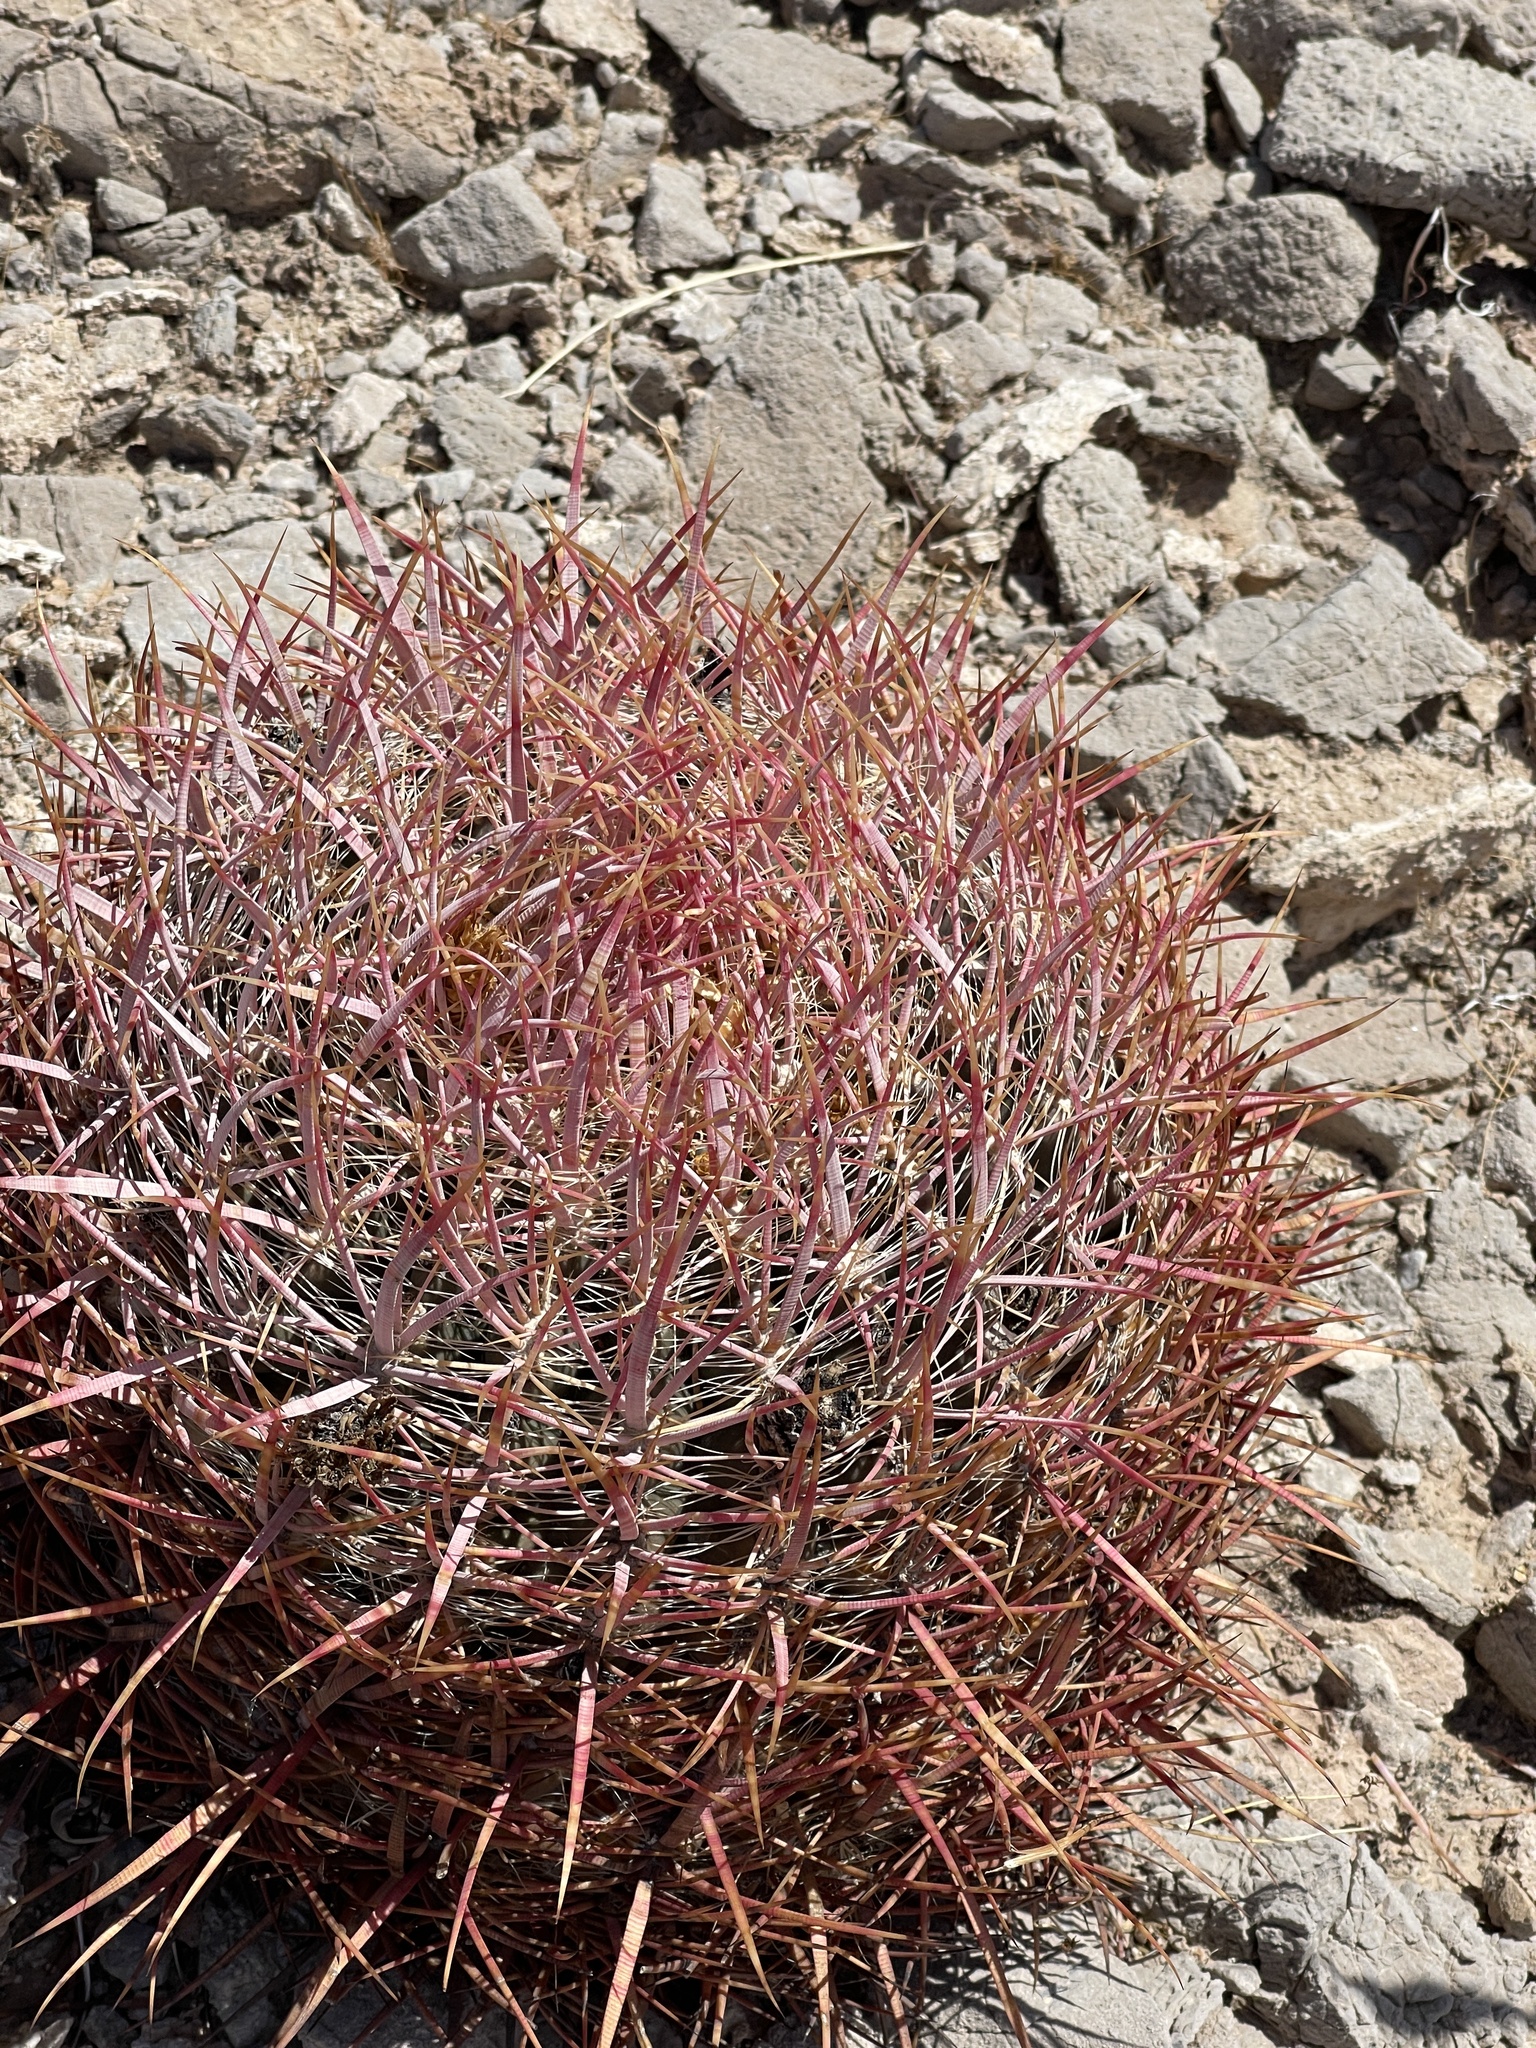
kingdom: Plantae
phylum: Tracheophyta
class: Magnoliopsida
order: Caryophyllales
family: Cactaceae
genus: Ferocactus
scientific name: Ferocactus cylindraceus
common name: California barrel cactus
